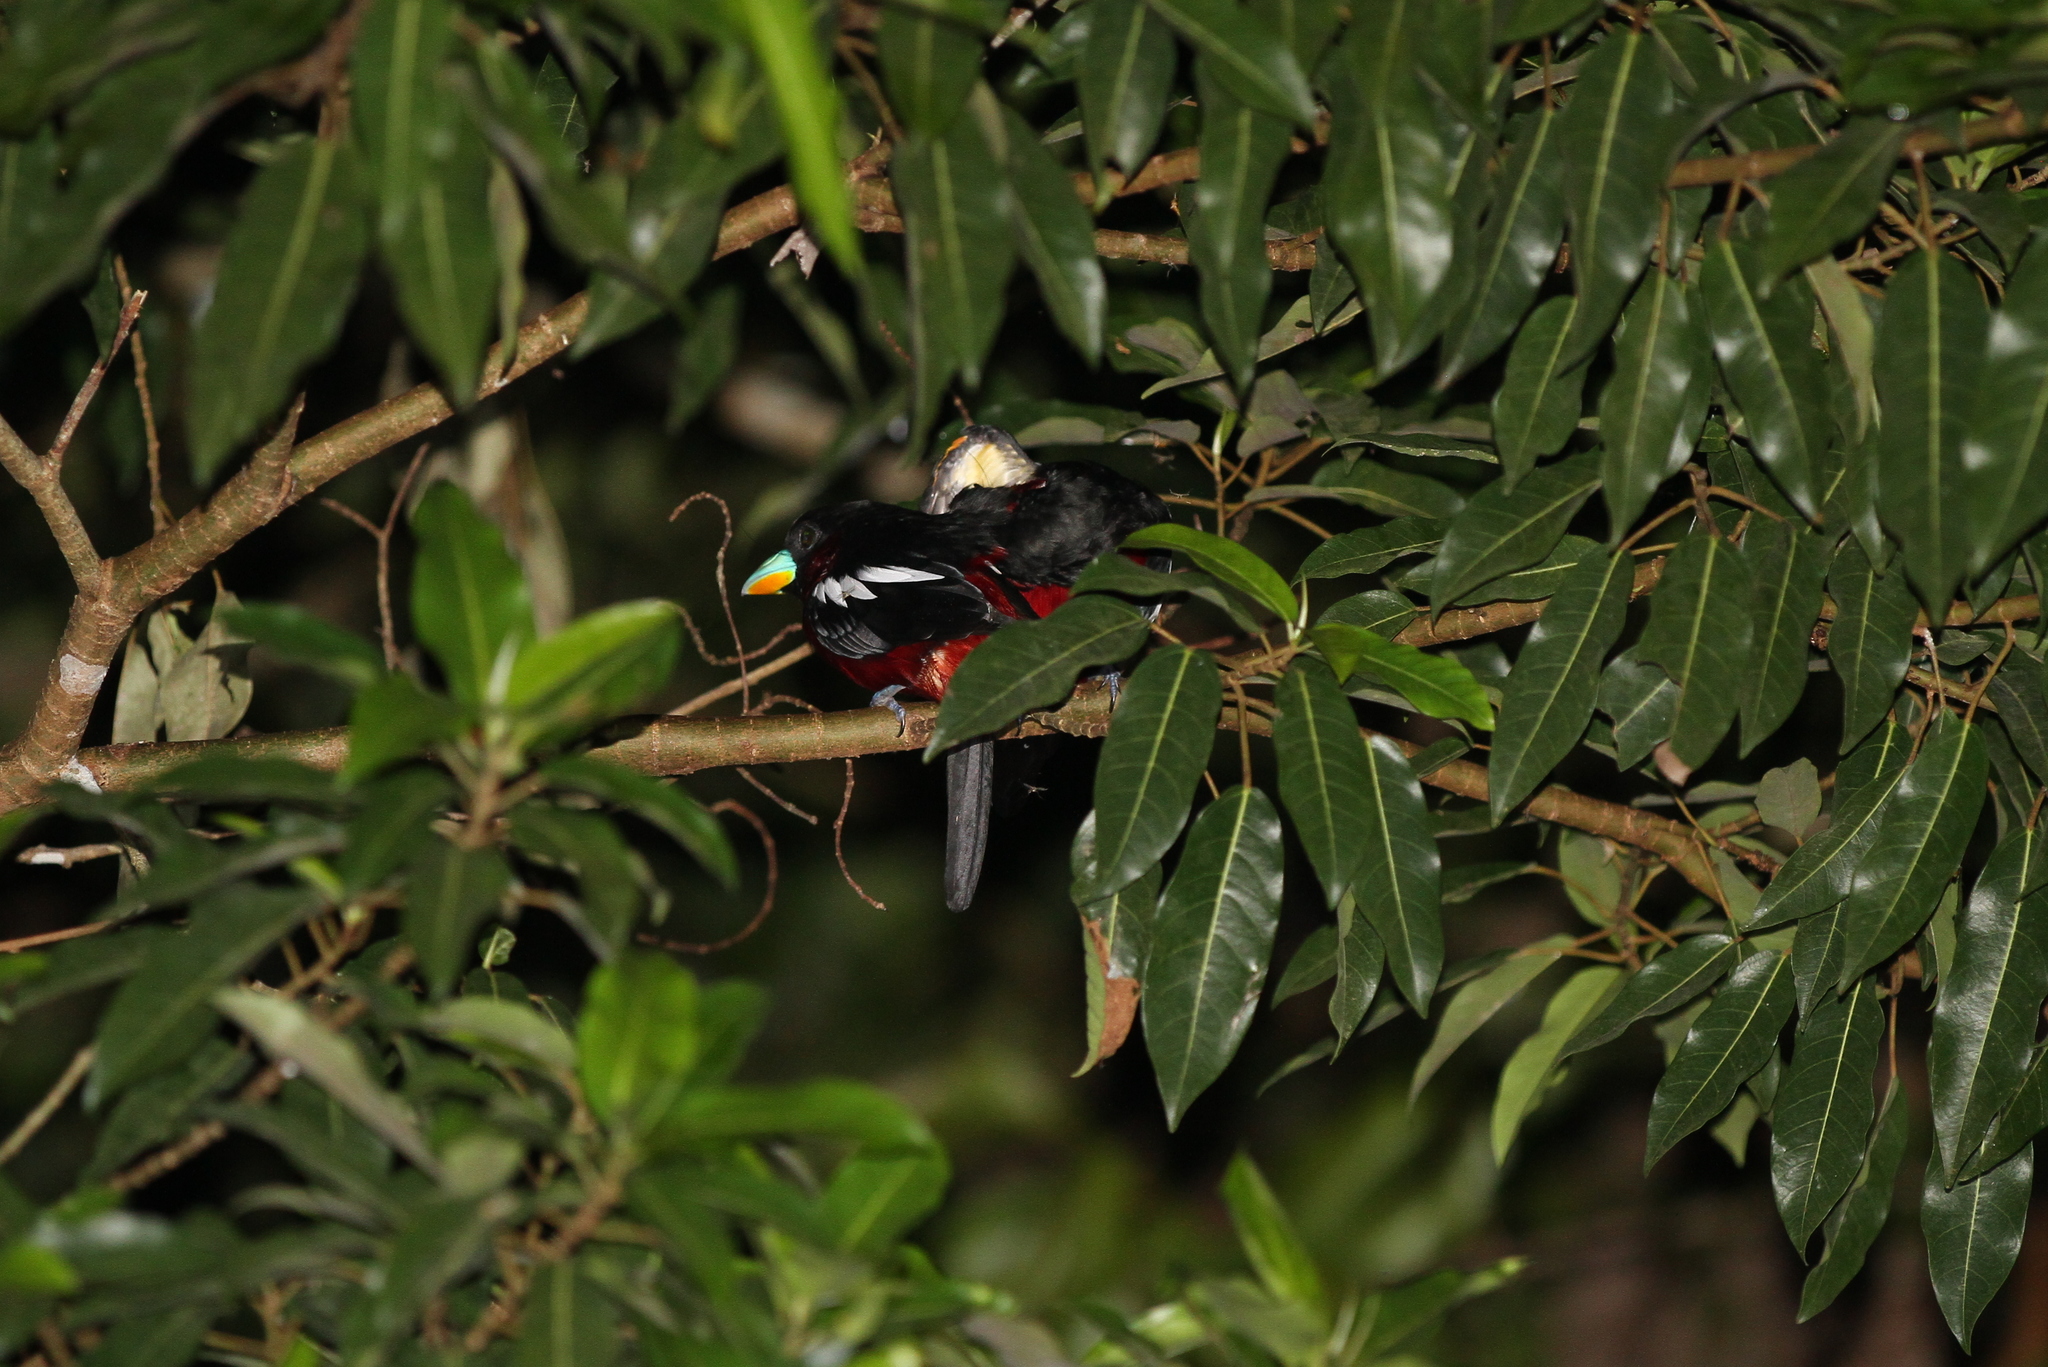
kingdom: Animalia
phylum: Chordata
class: Aves
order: Passeriformes
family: Eurylaimidae
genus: Cymbirhynchus
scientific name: Cymbirhynchus macrorhynchos
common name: Black-and-red broadbill
